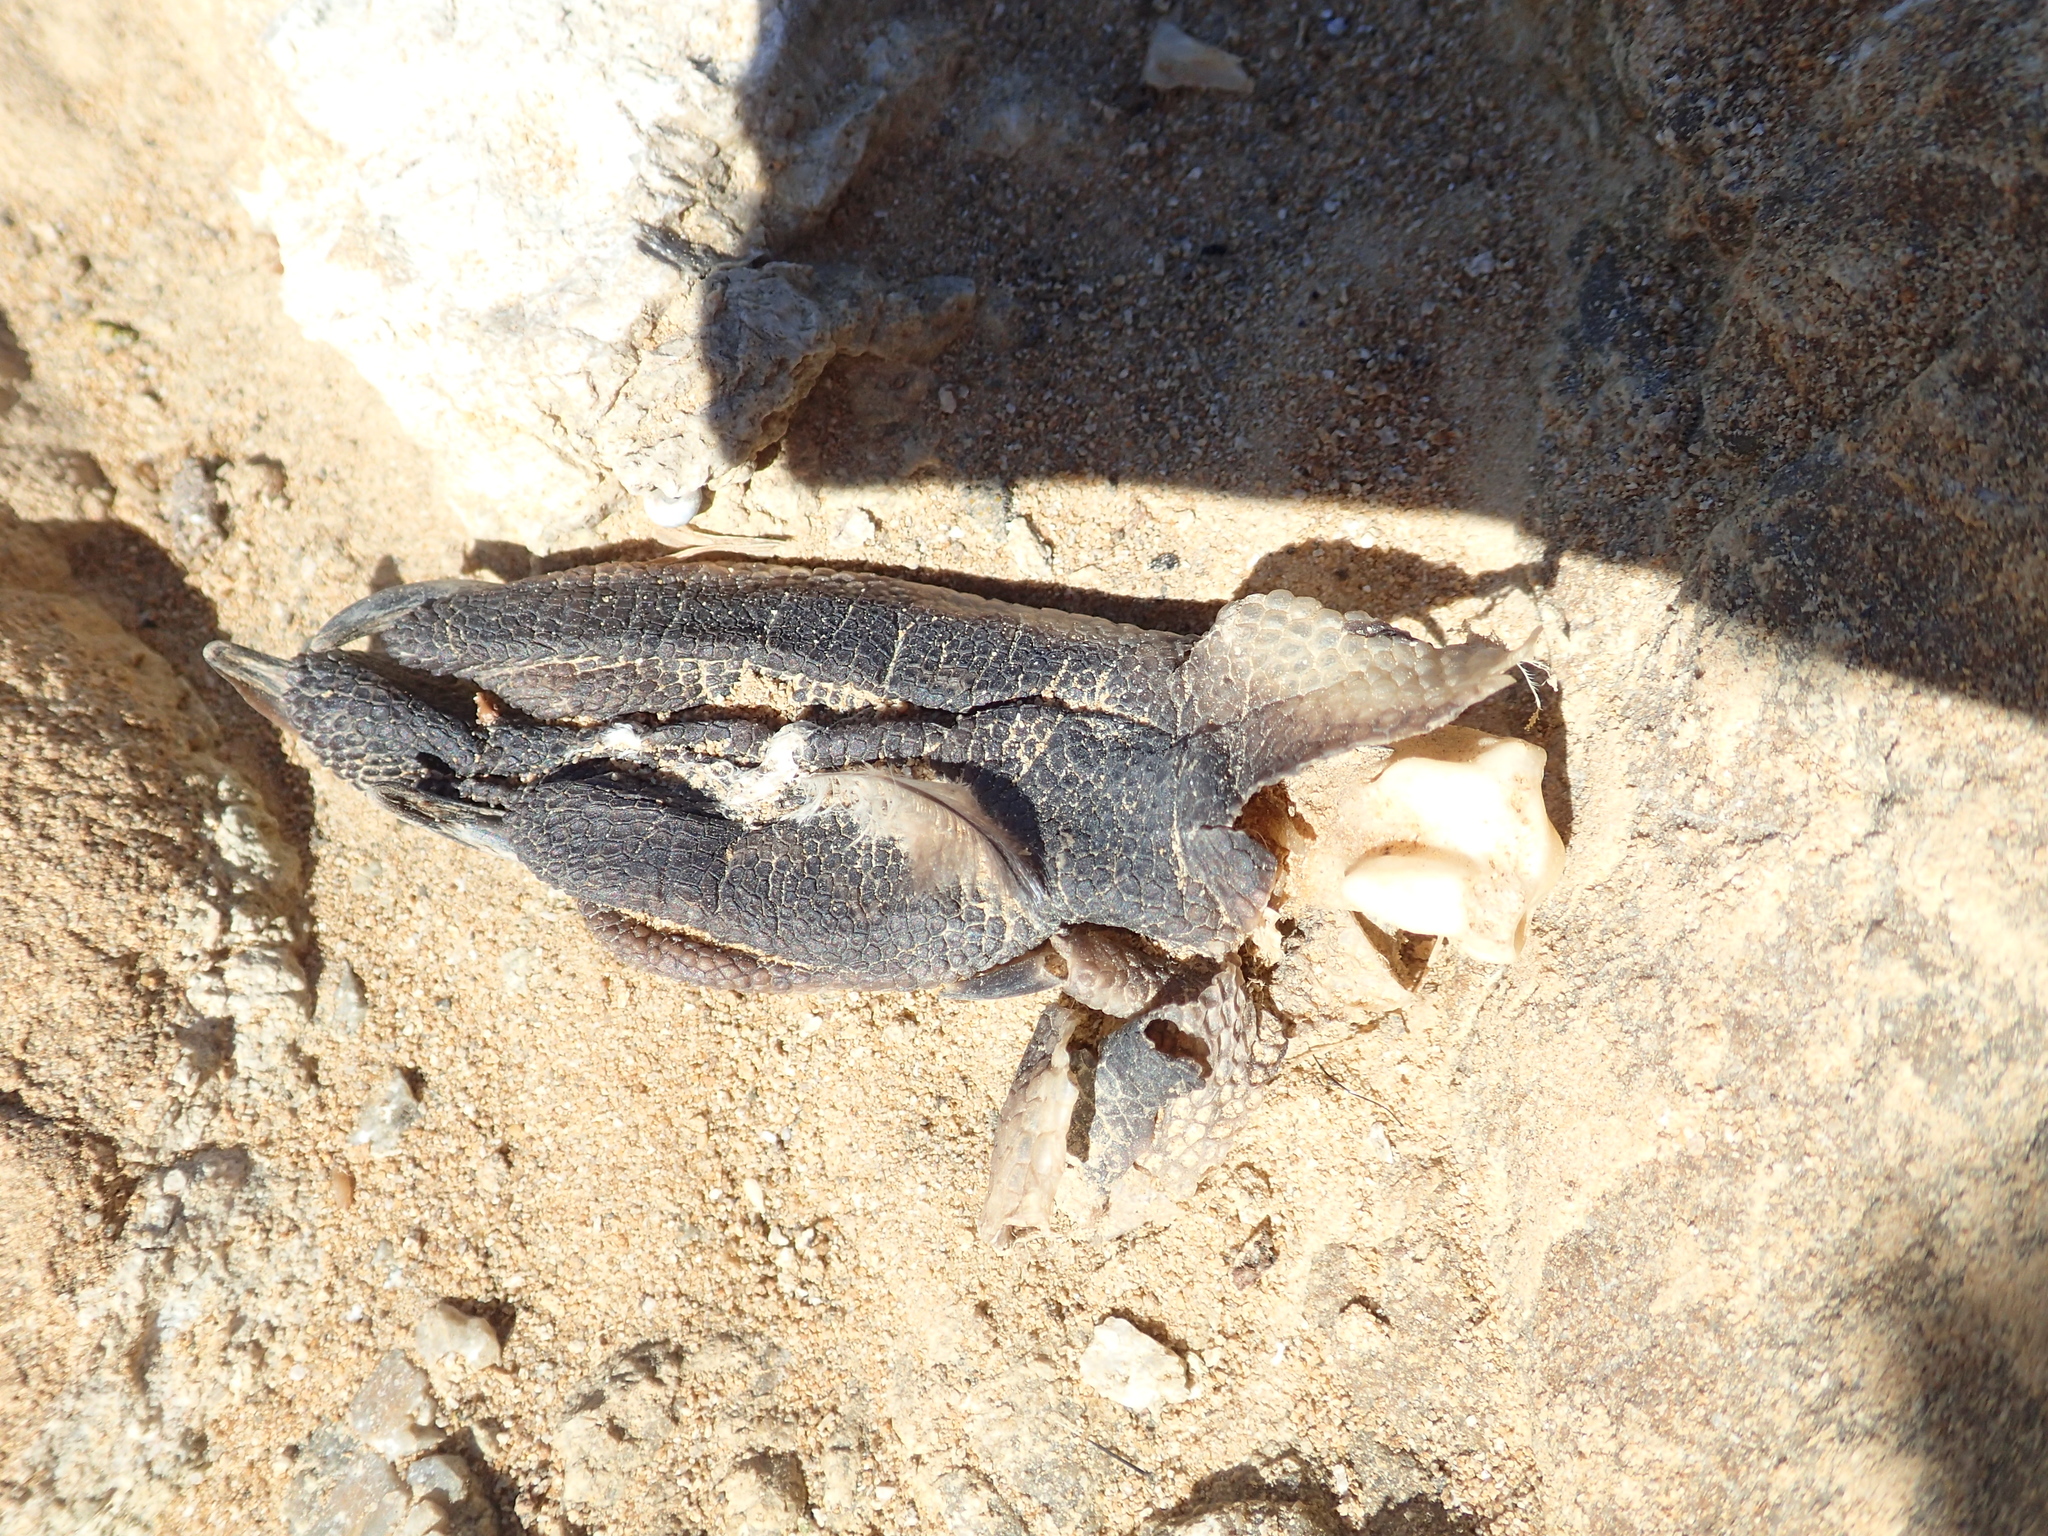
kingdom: Animalia
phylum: Chordata
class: Aves
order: Sphenisciformes
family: Spheniscidae
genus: Eudyptula
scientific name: Eudyptula minor
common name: Little penguin
